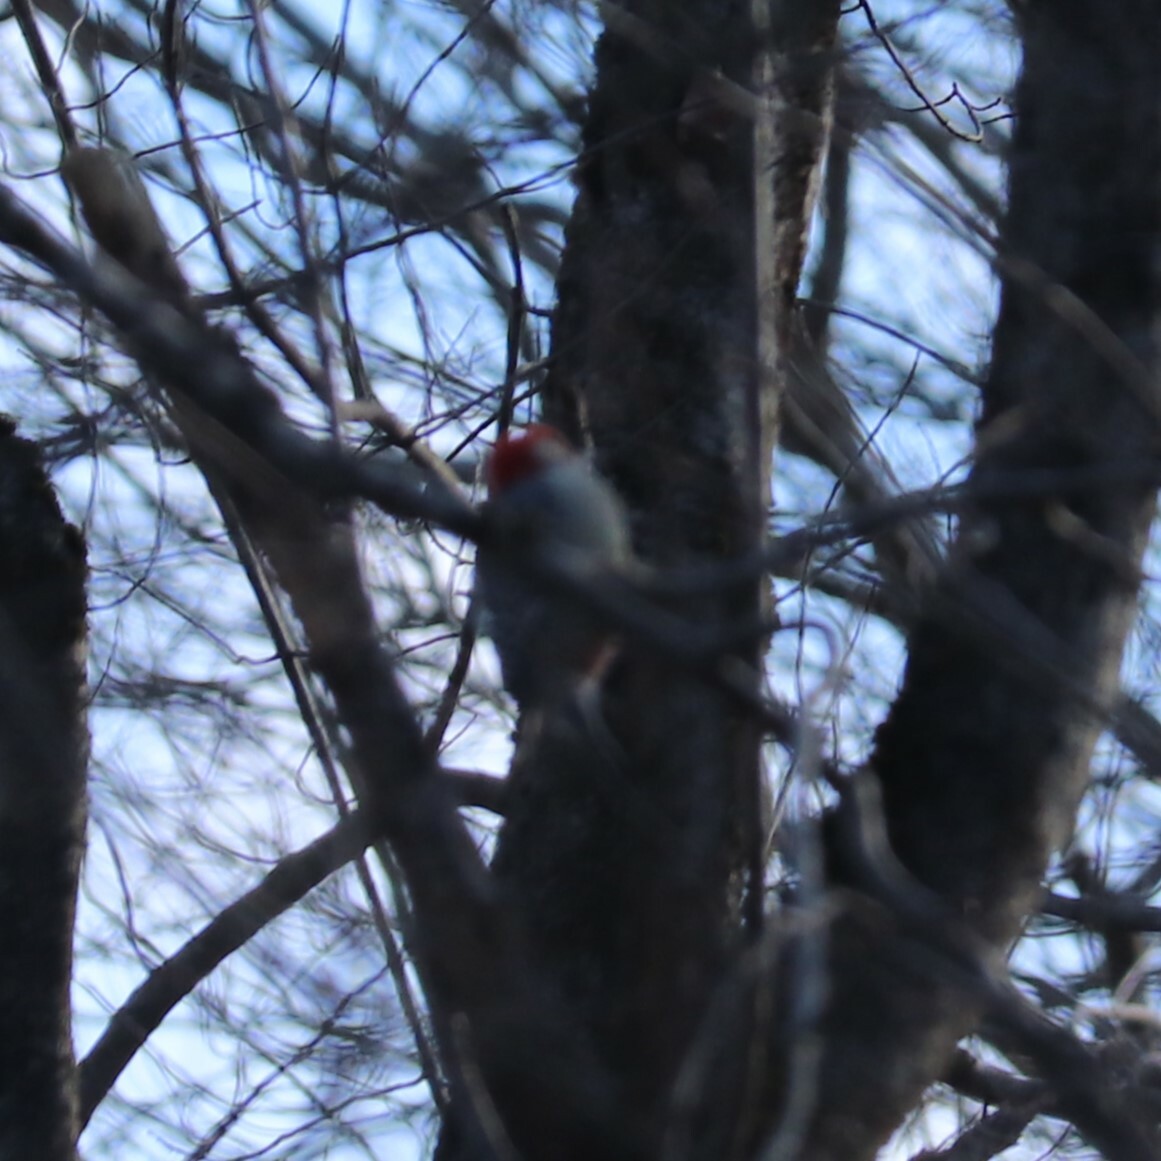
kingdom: Animalia
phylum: Chordata
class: Aves
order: Piciformes
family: Picidae
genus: Melanerpes
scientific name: Melanerpes carolinus
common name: Red-bellied woodpecker
